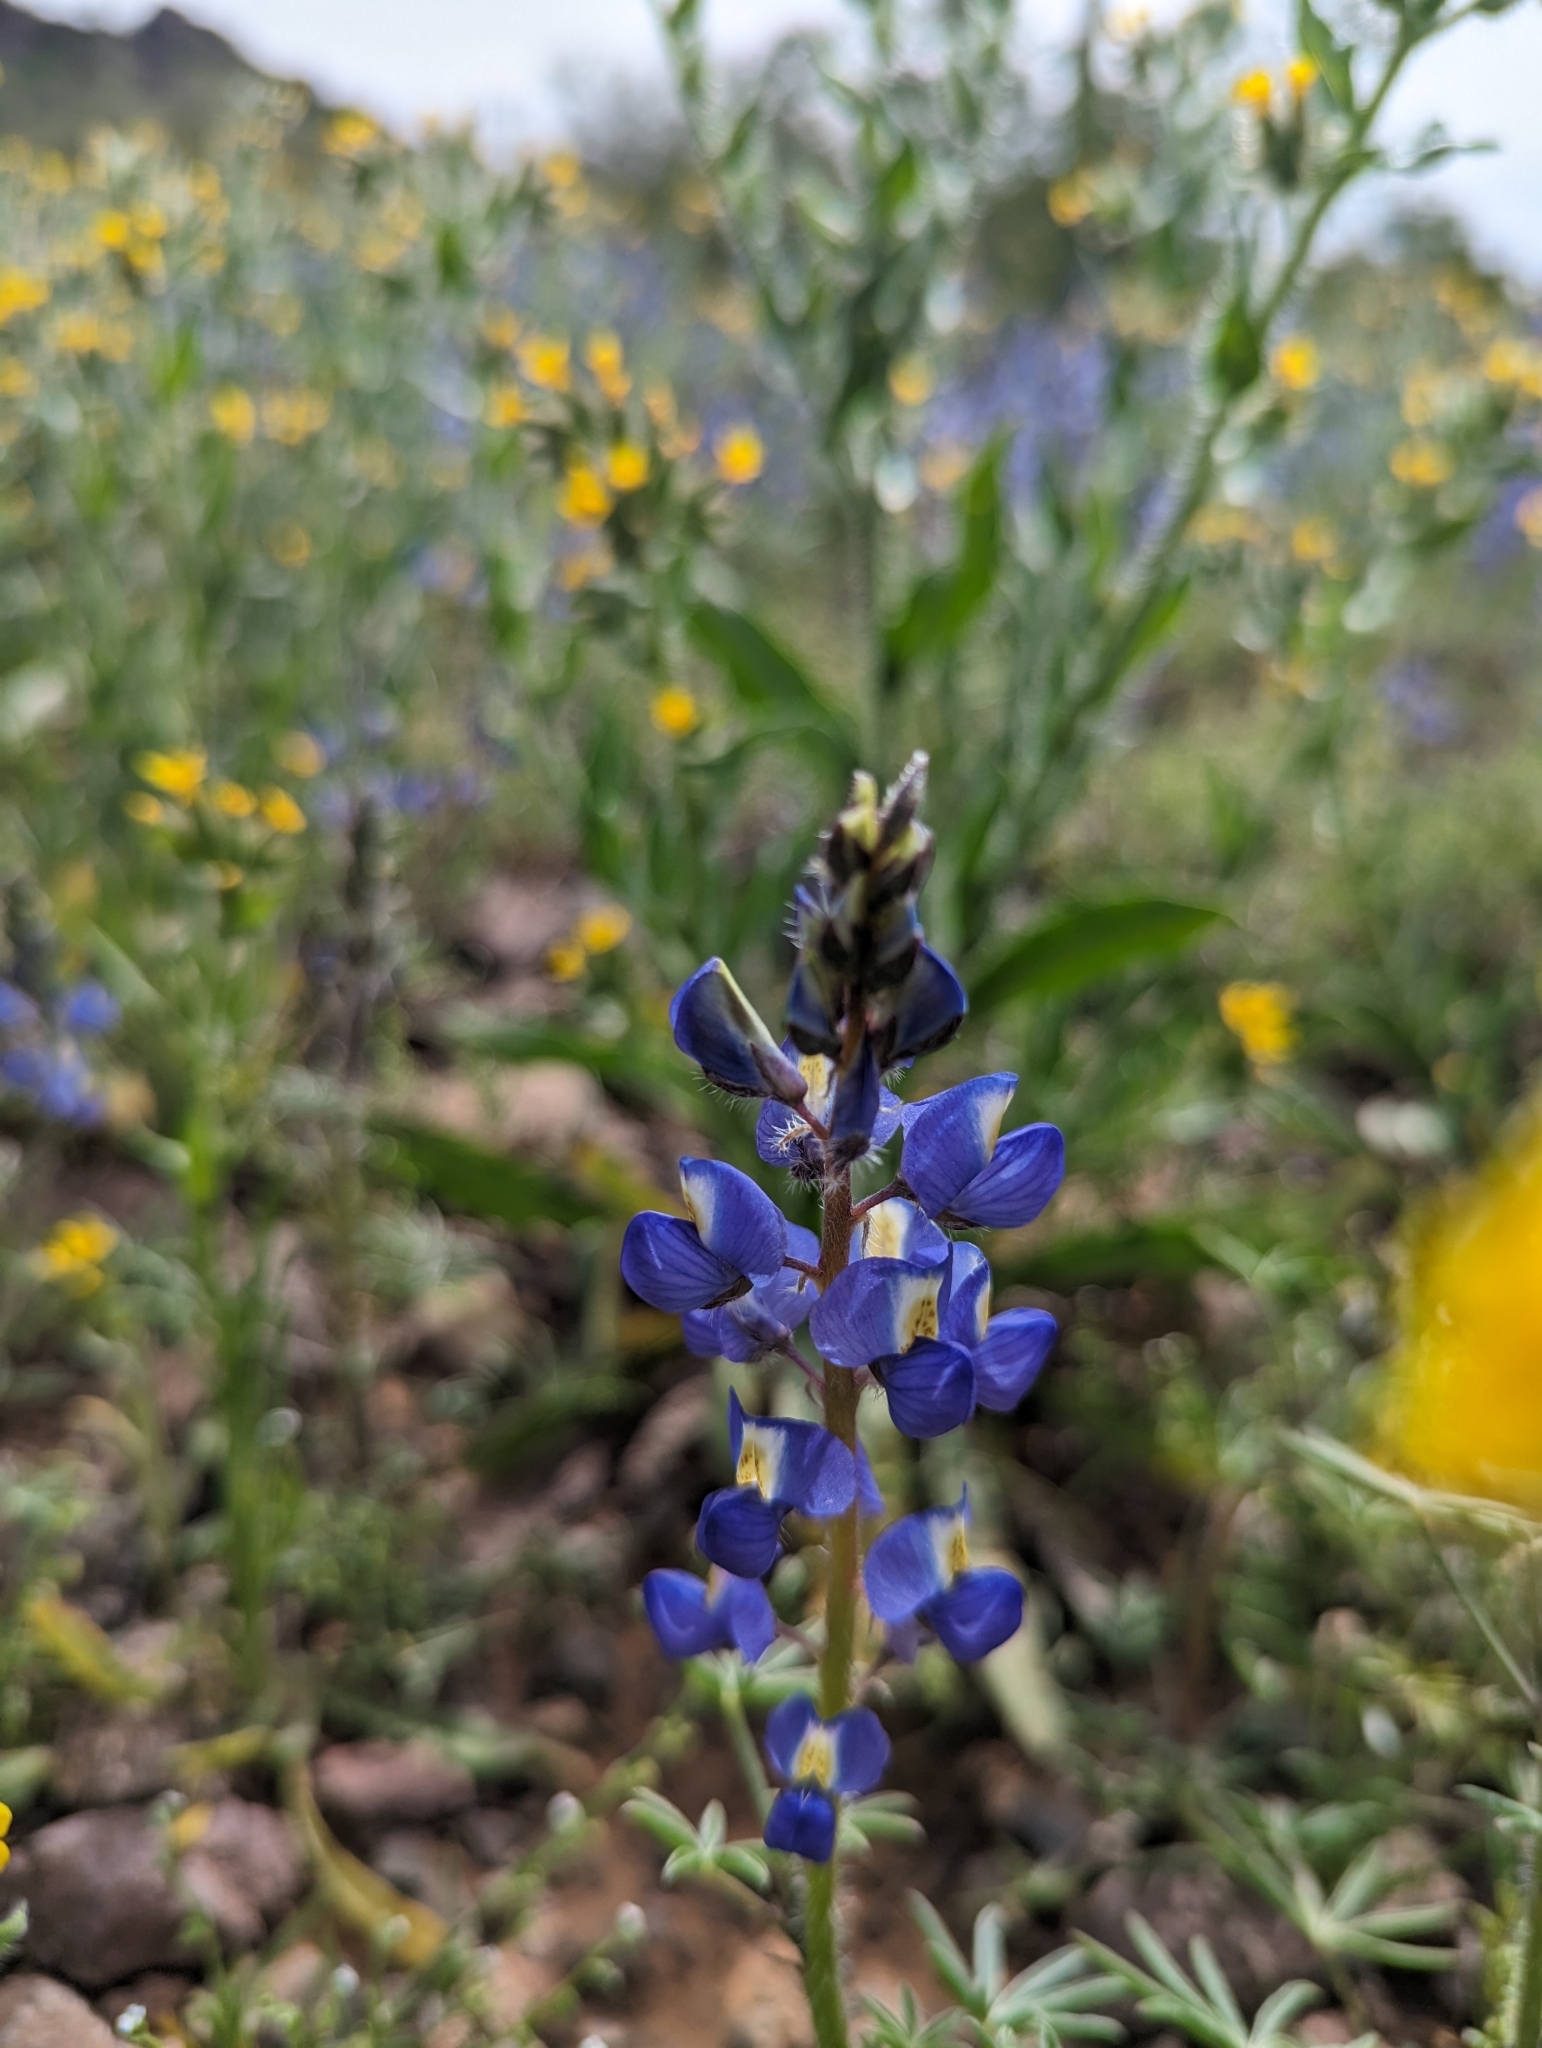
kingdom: Plantae
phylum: Tracheophyta
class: Magnoliopsida
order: Fabales
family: Fabaceae
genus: Lupinus
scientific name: Lupinus sparsiflorus
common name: Coulter's lupine
